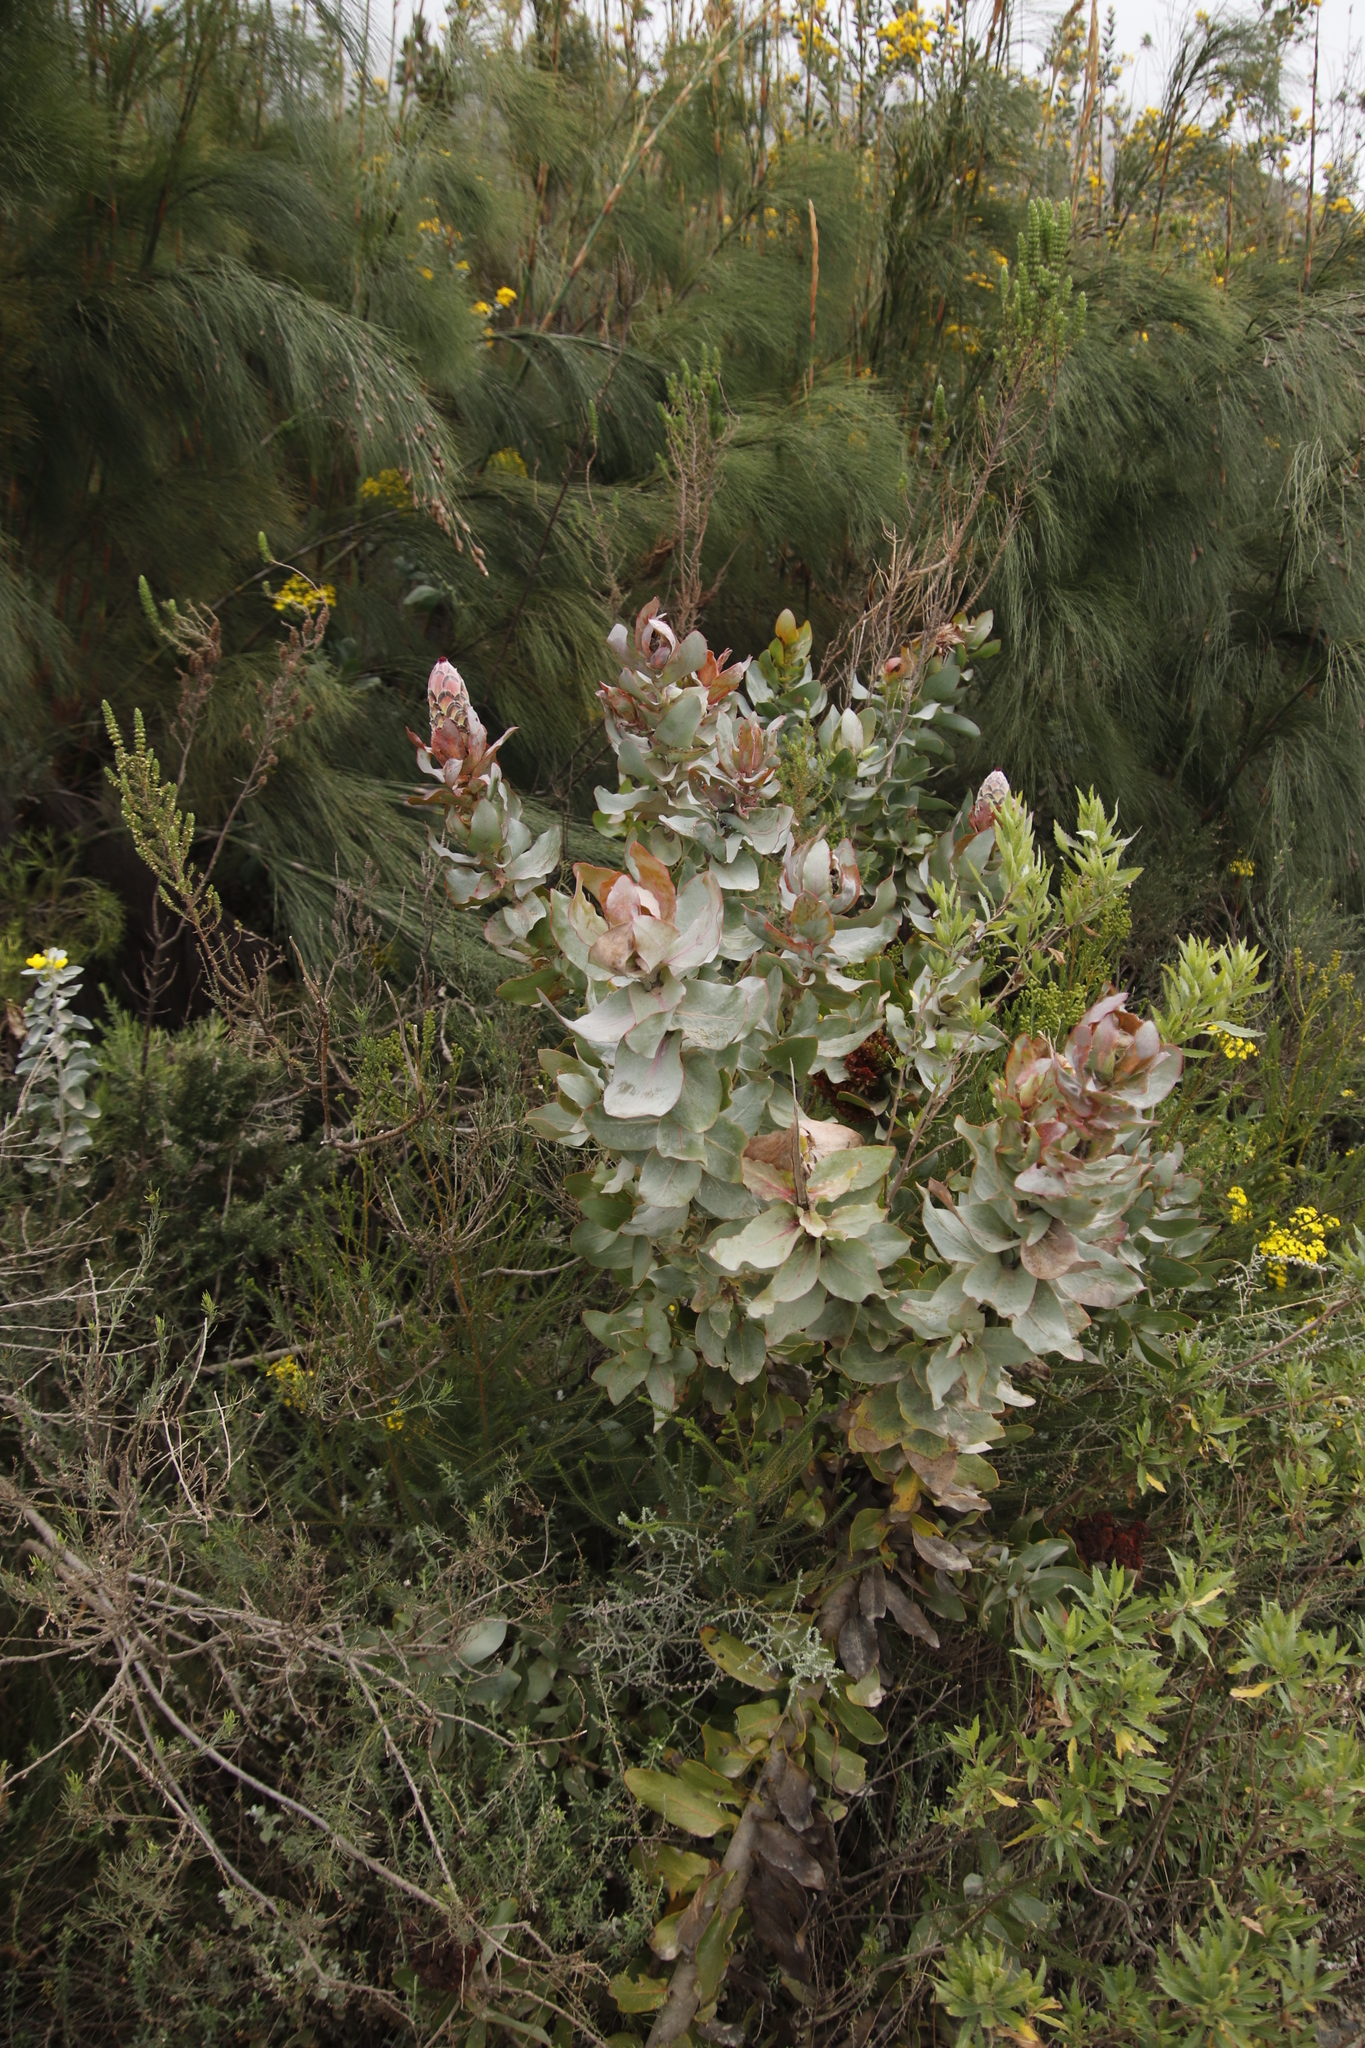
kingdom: Plantae
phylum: Tracheophyta
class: Magnoliopsida
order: Proteales
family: Proteaceae
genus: Protea
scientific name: Protea eximia
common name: Broad-leaved sugarbush
